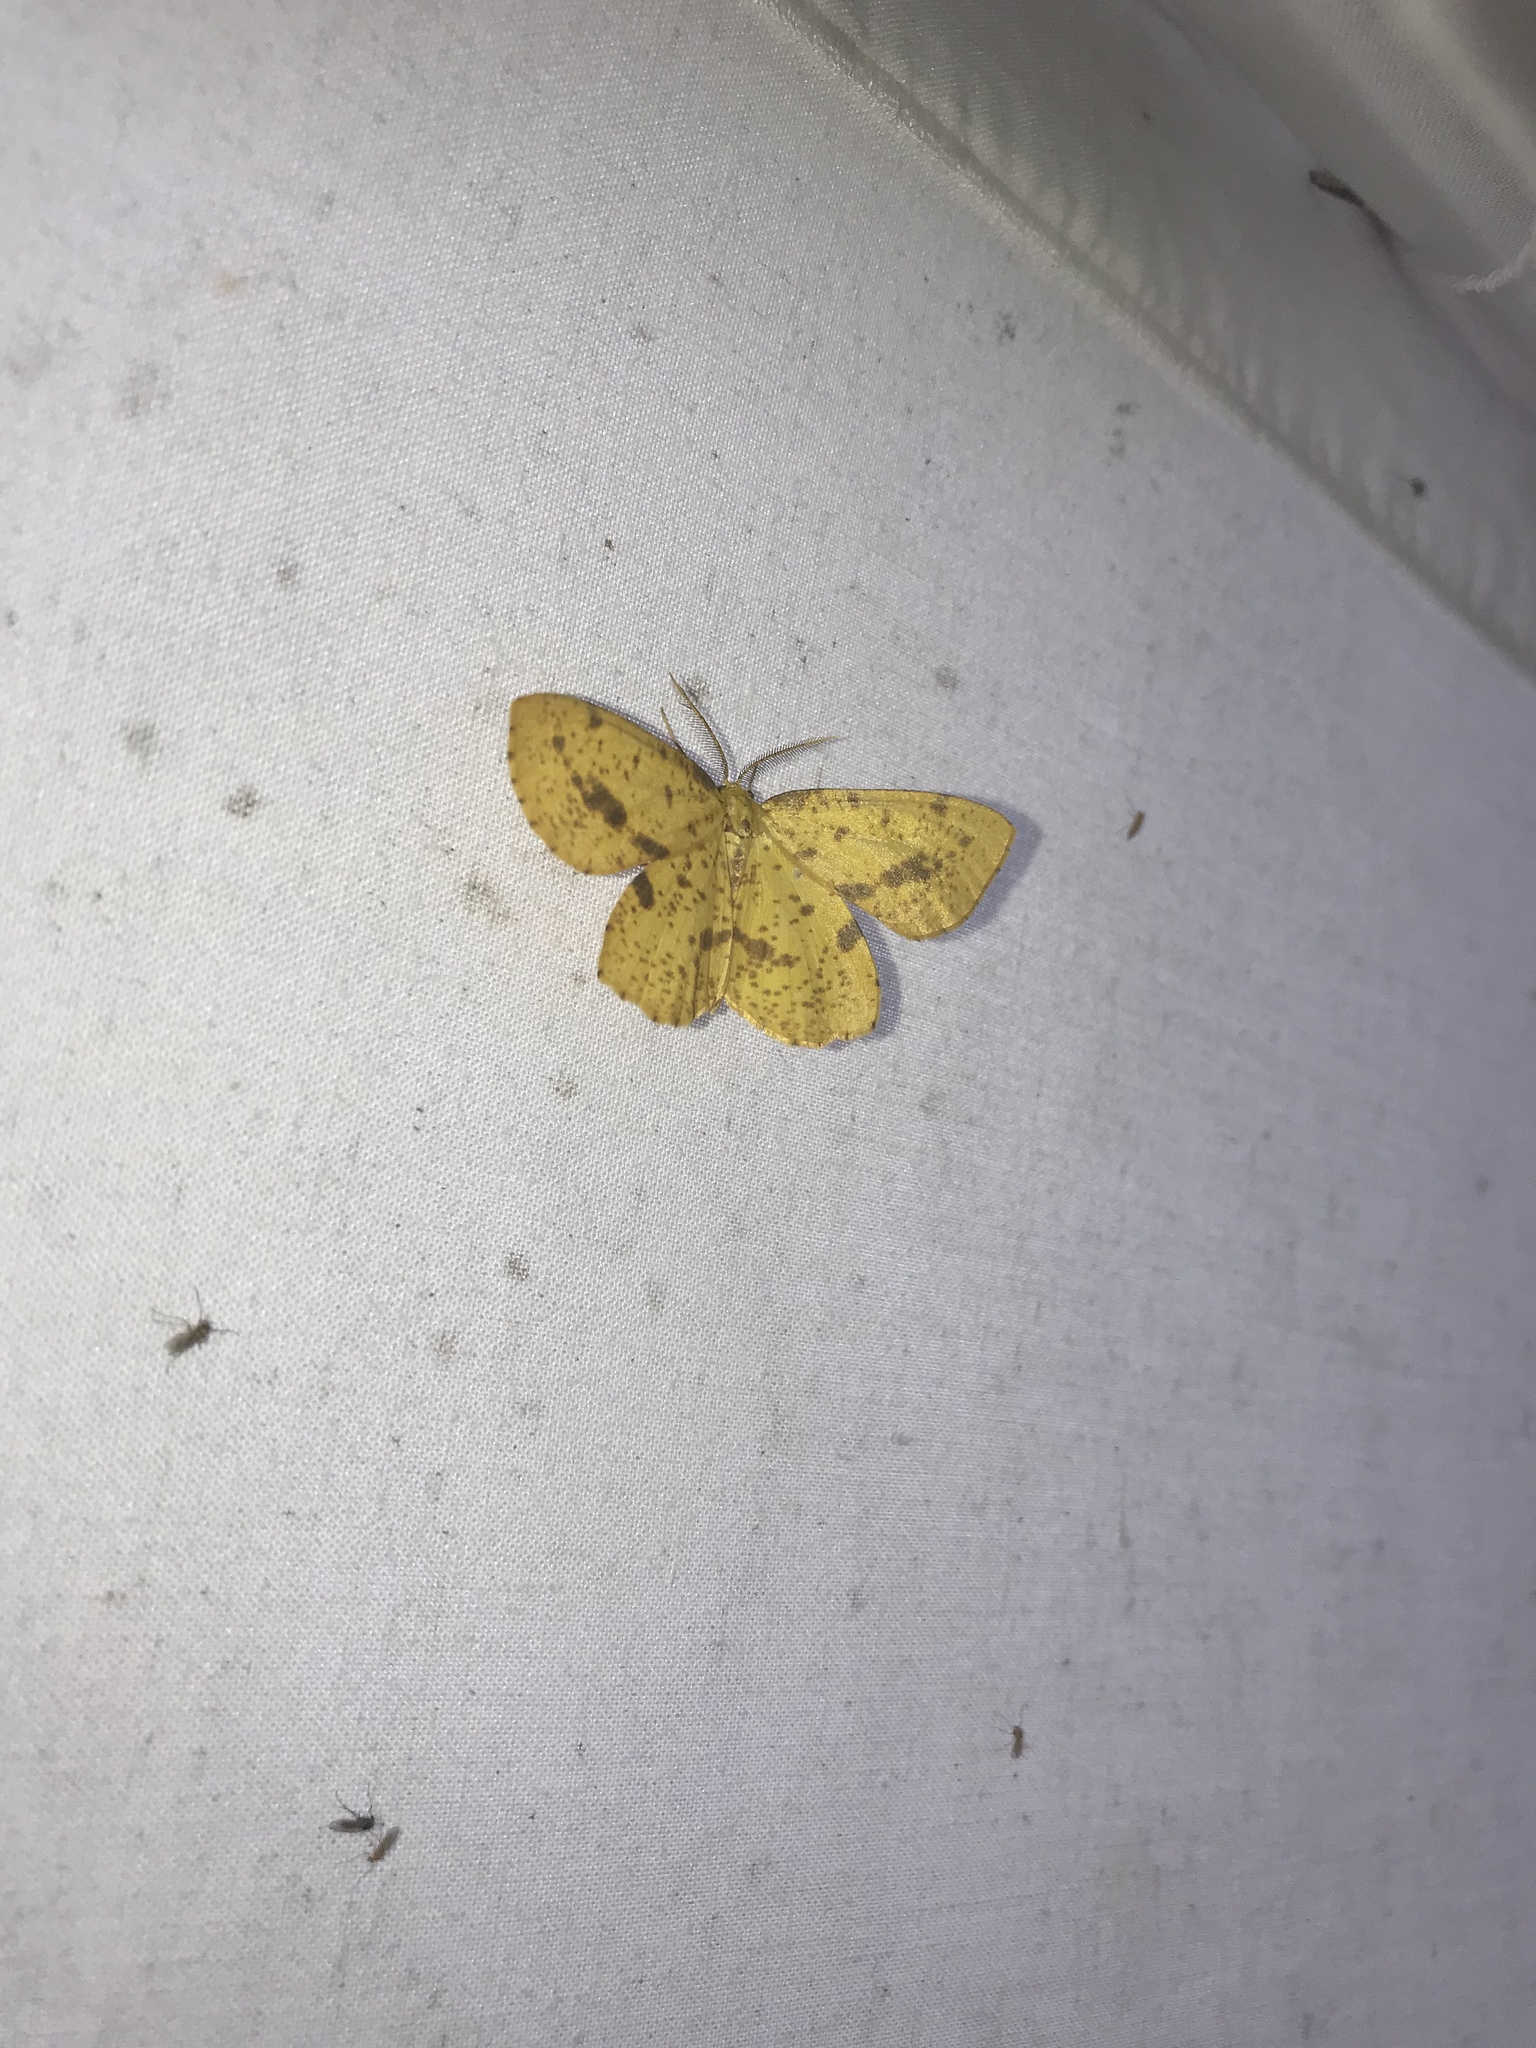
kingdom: Animalia
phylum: Arthropoda
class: Insecta
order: Lepidoptera
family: Geometridae
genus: Xanthotype
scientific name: Xanthotype
